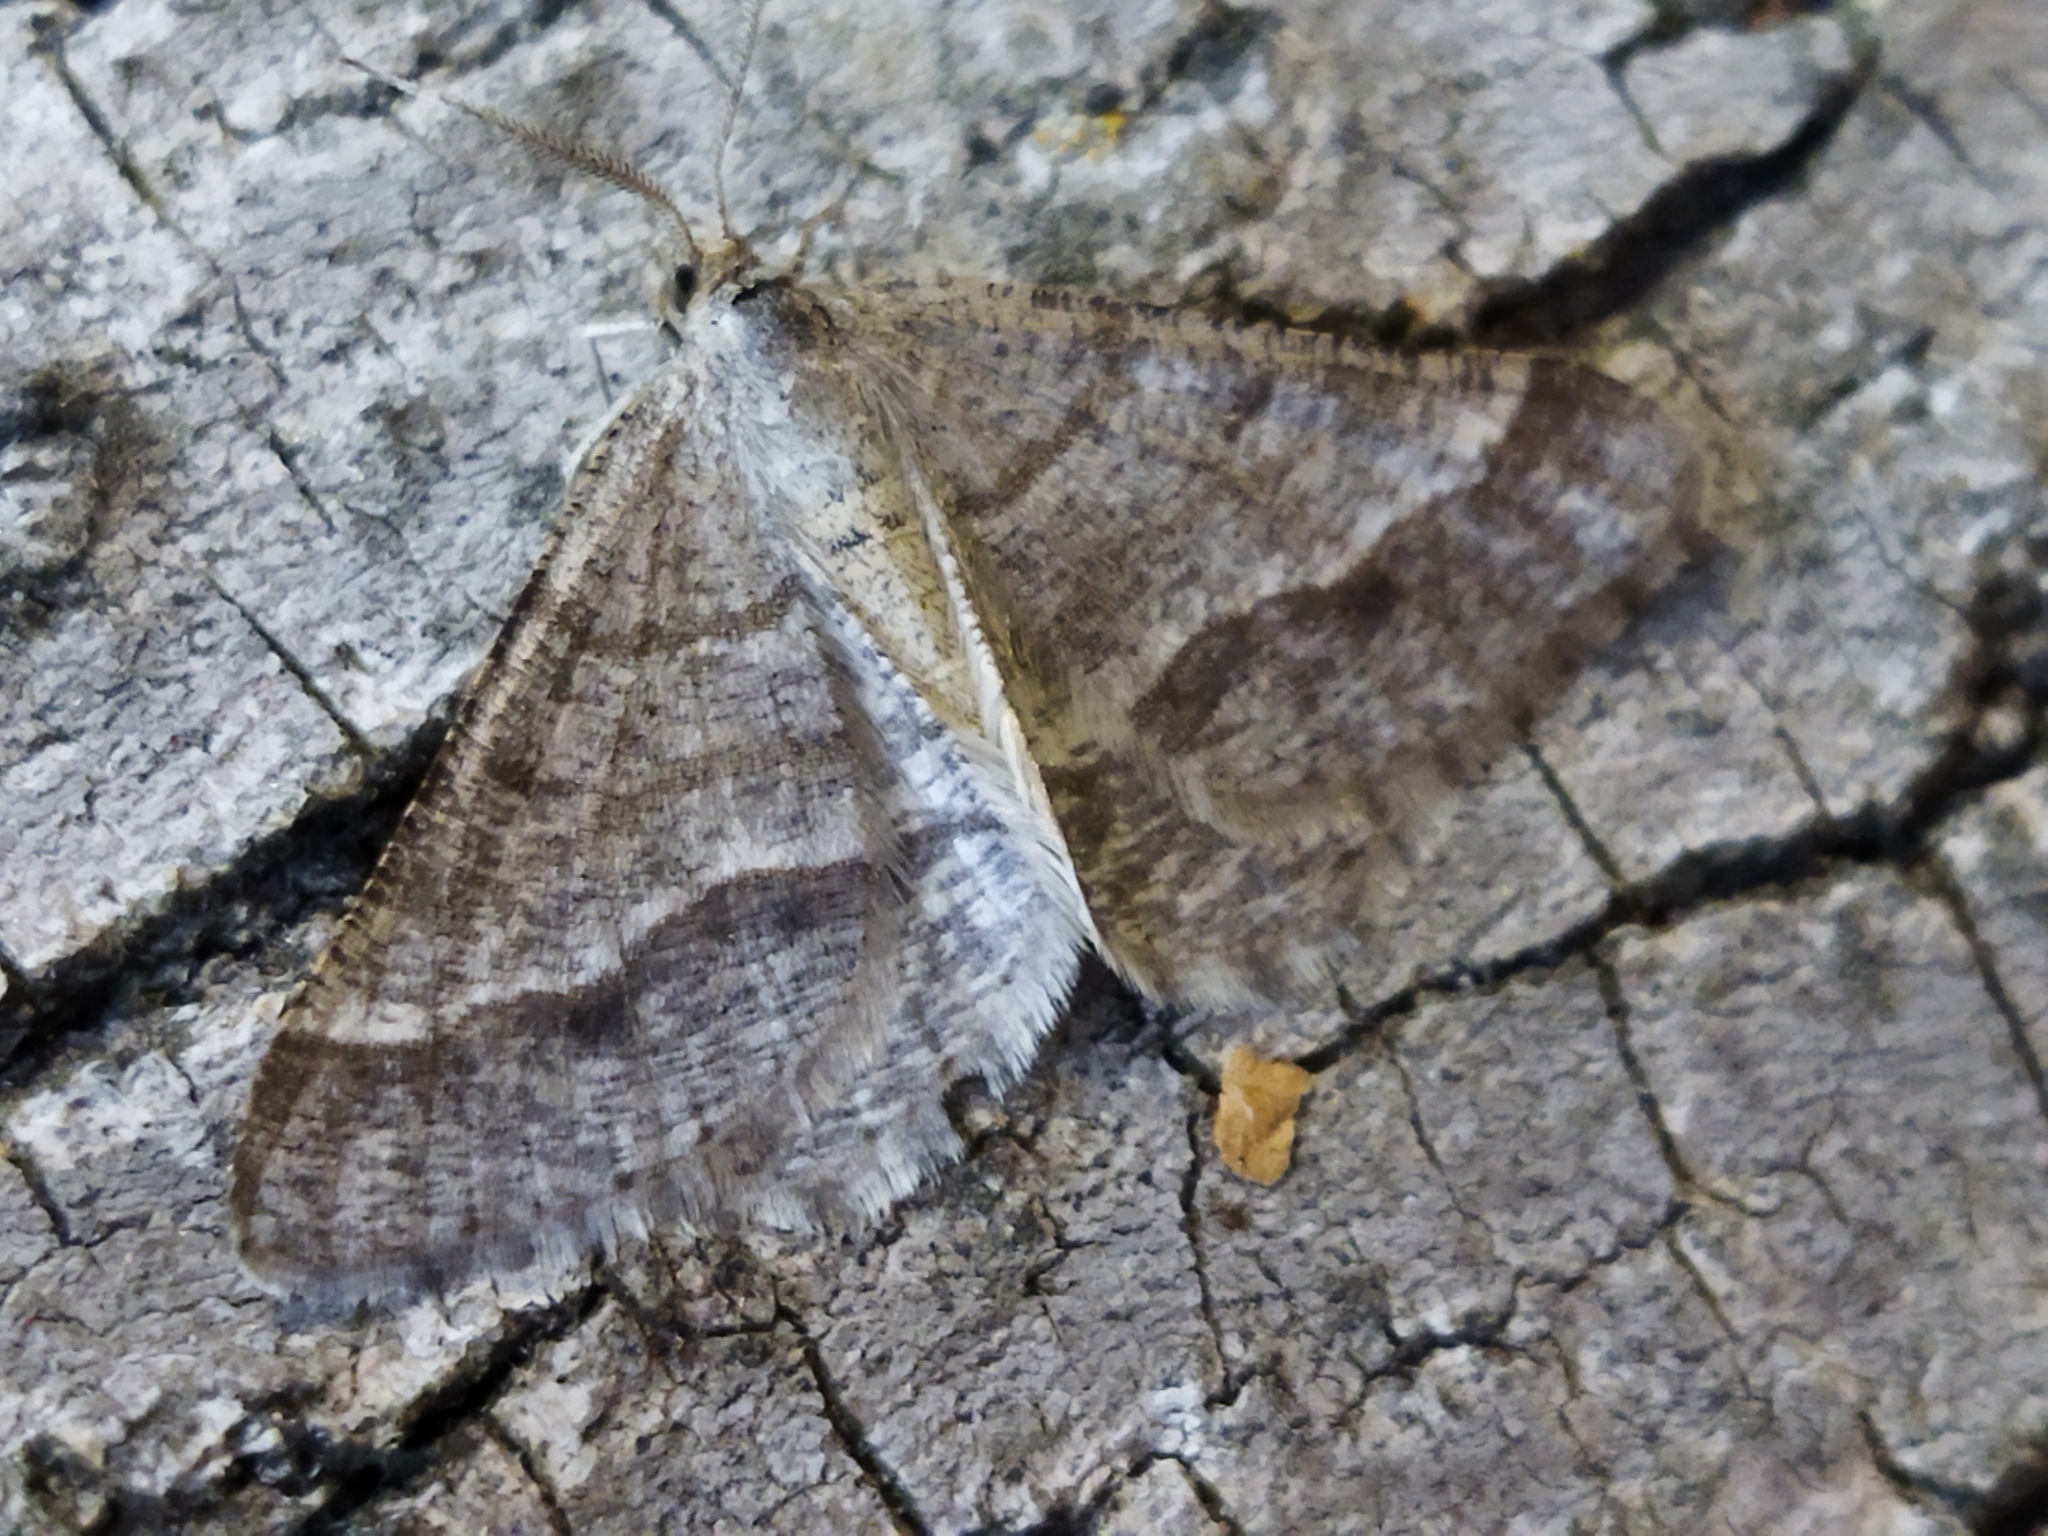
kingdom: Animalia
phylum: Arthropoda
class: Insecta
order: Lepidoptera
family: Geometridae
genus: Tephrina
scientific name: Tephrina murinaria
